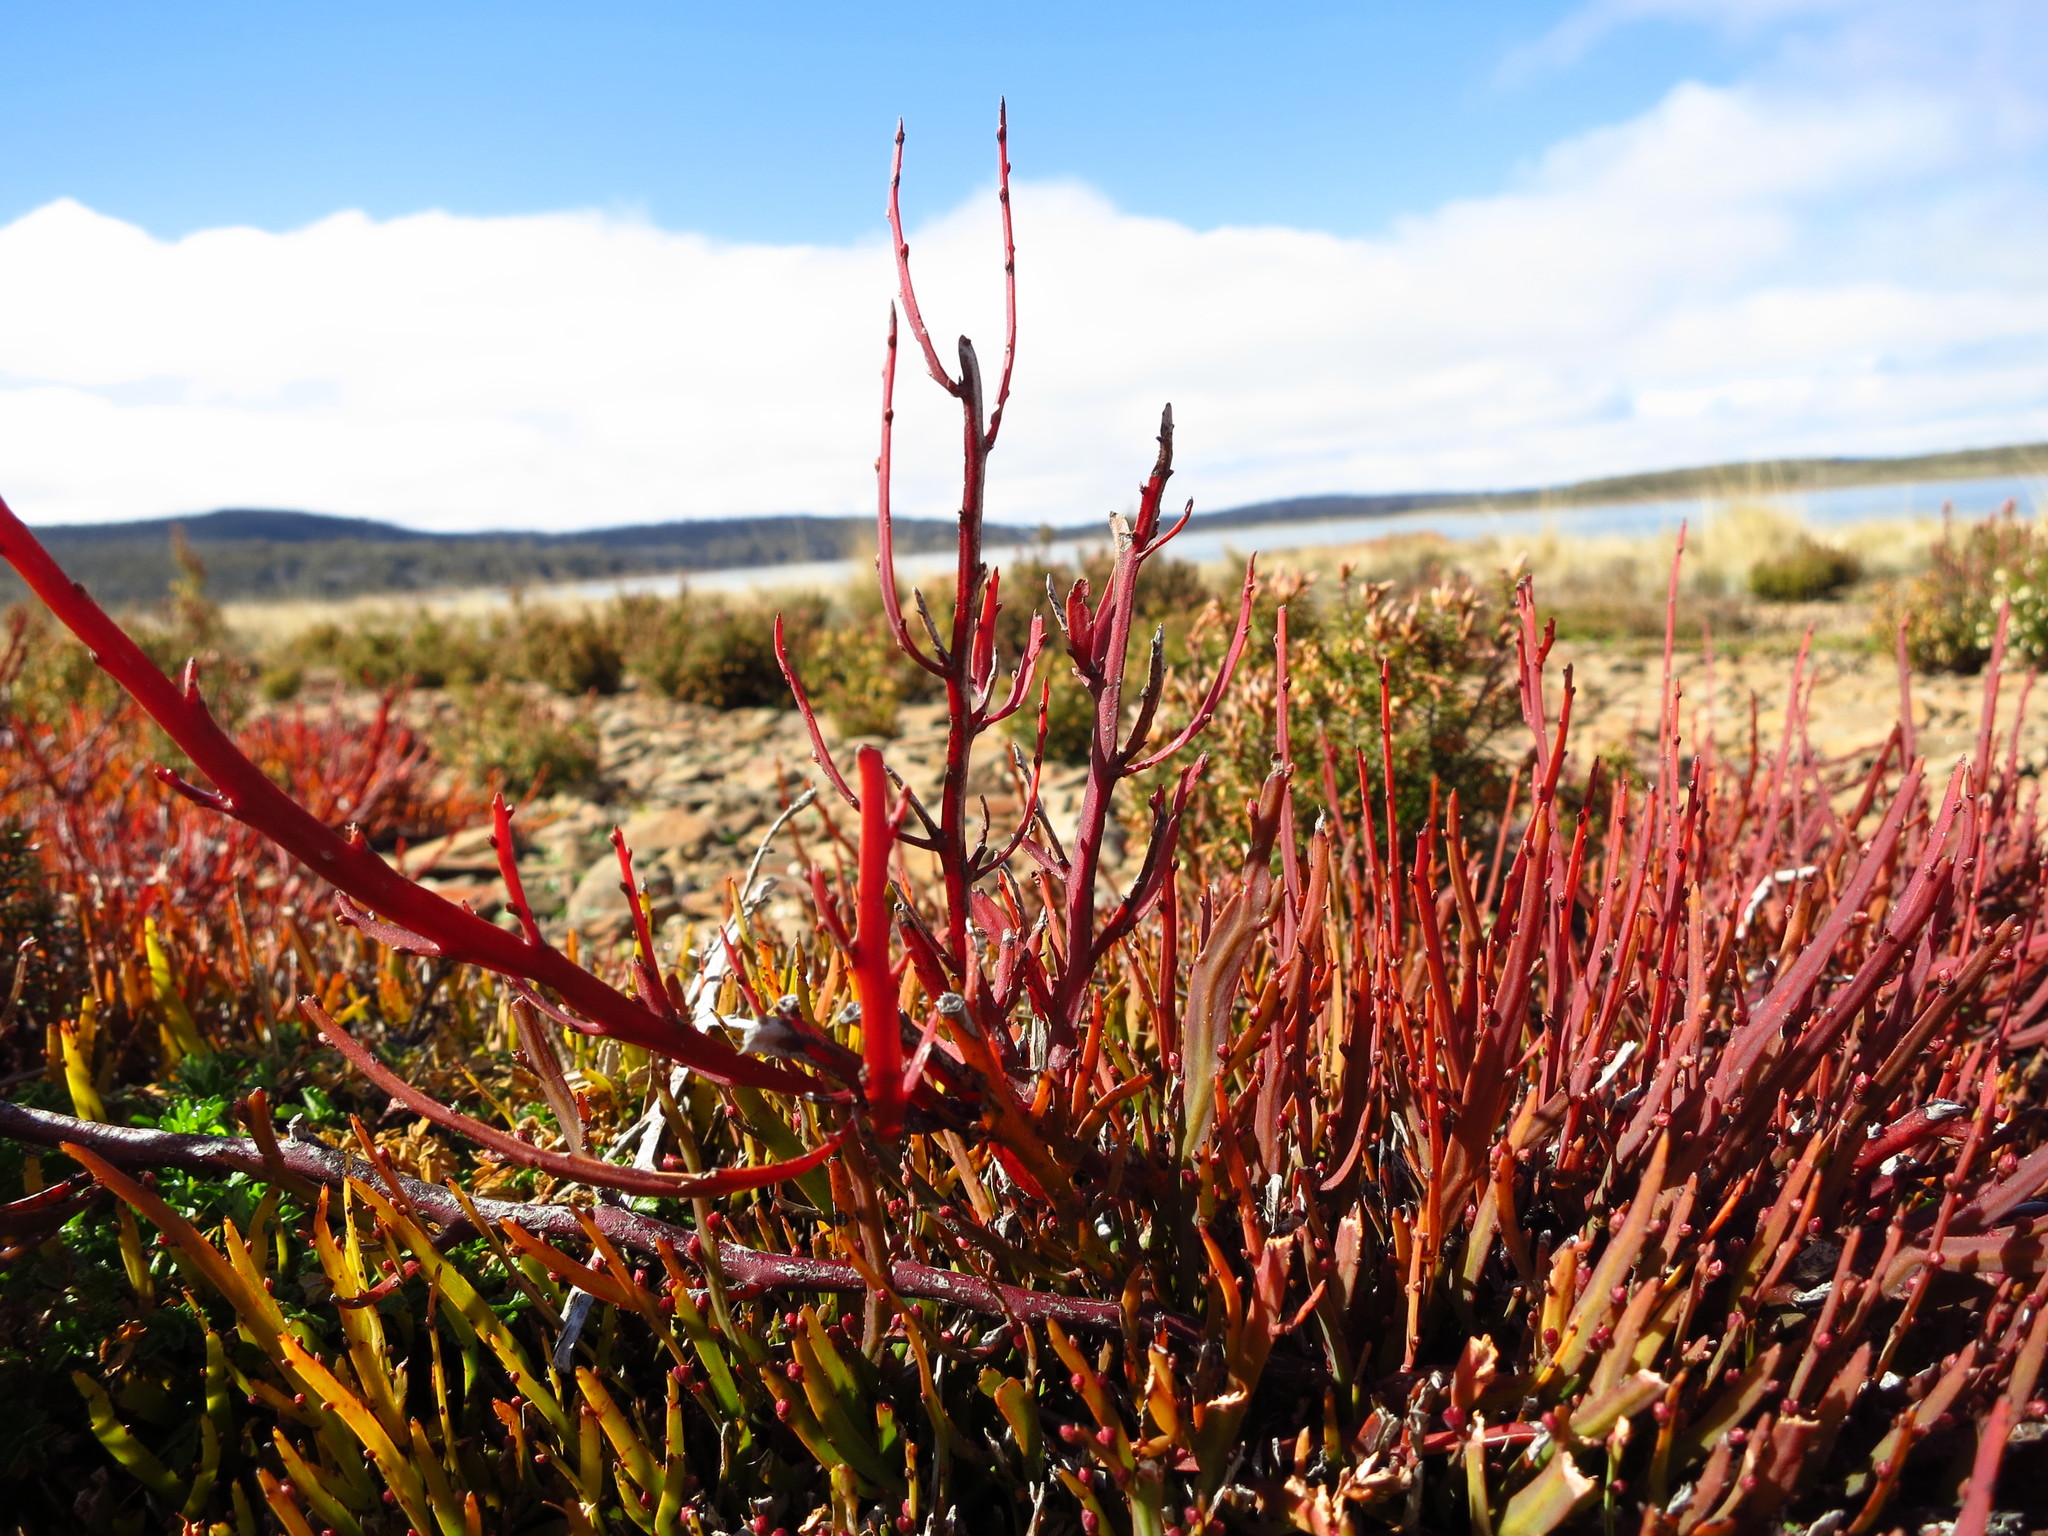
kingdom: Plantae
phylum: Tracheophyta
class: Magnoliopsida
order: Fabales
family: Fabaceae
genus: Bossiaea
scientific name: Bossiaea riparia
